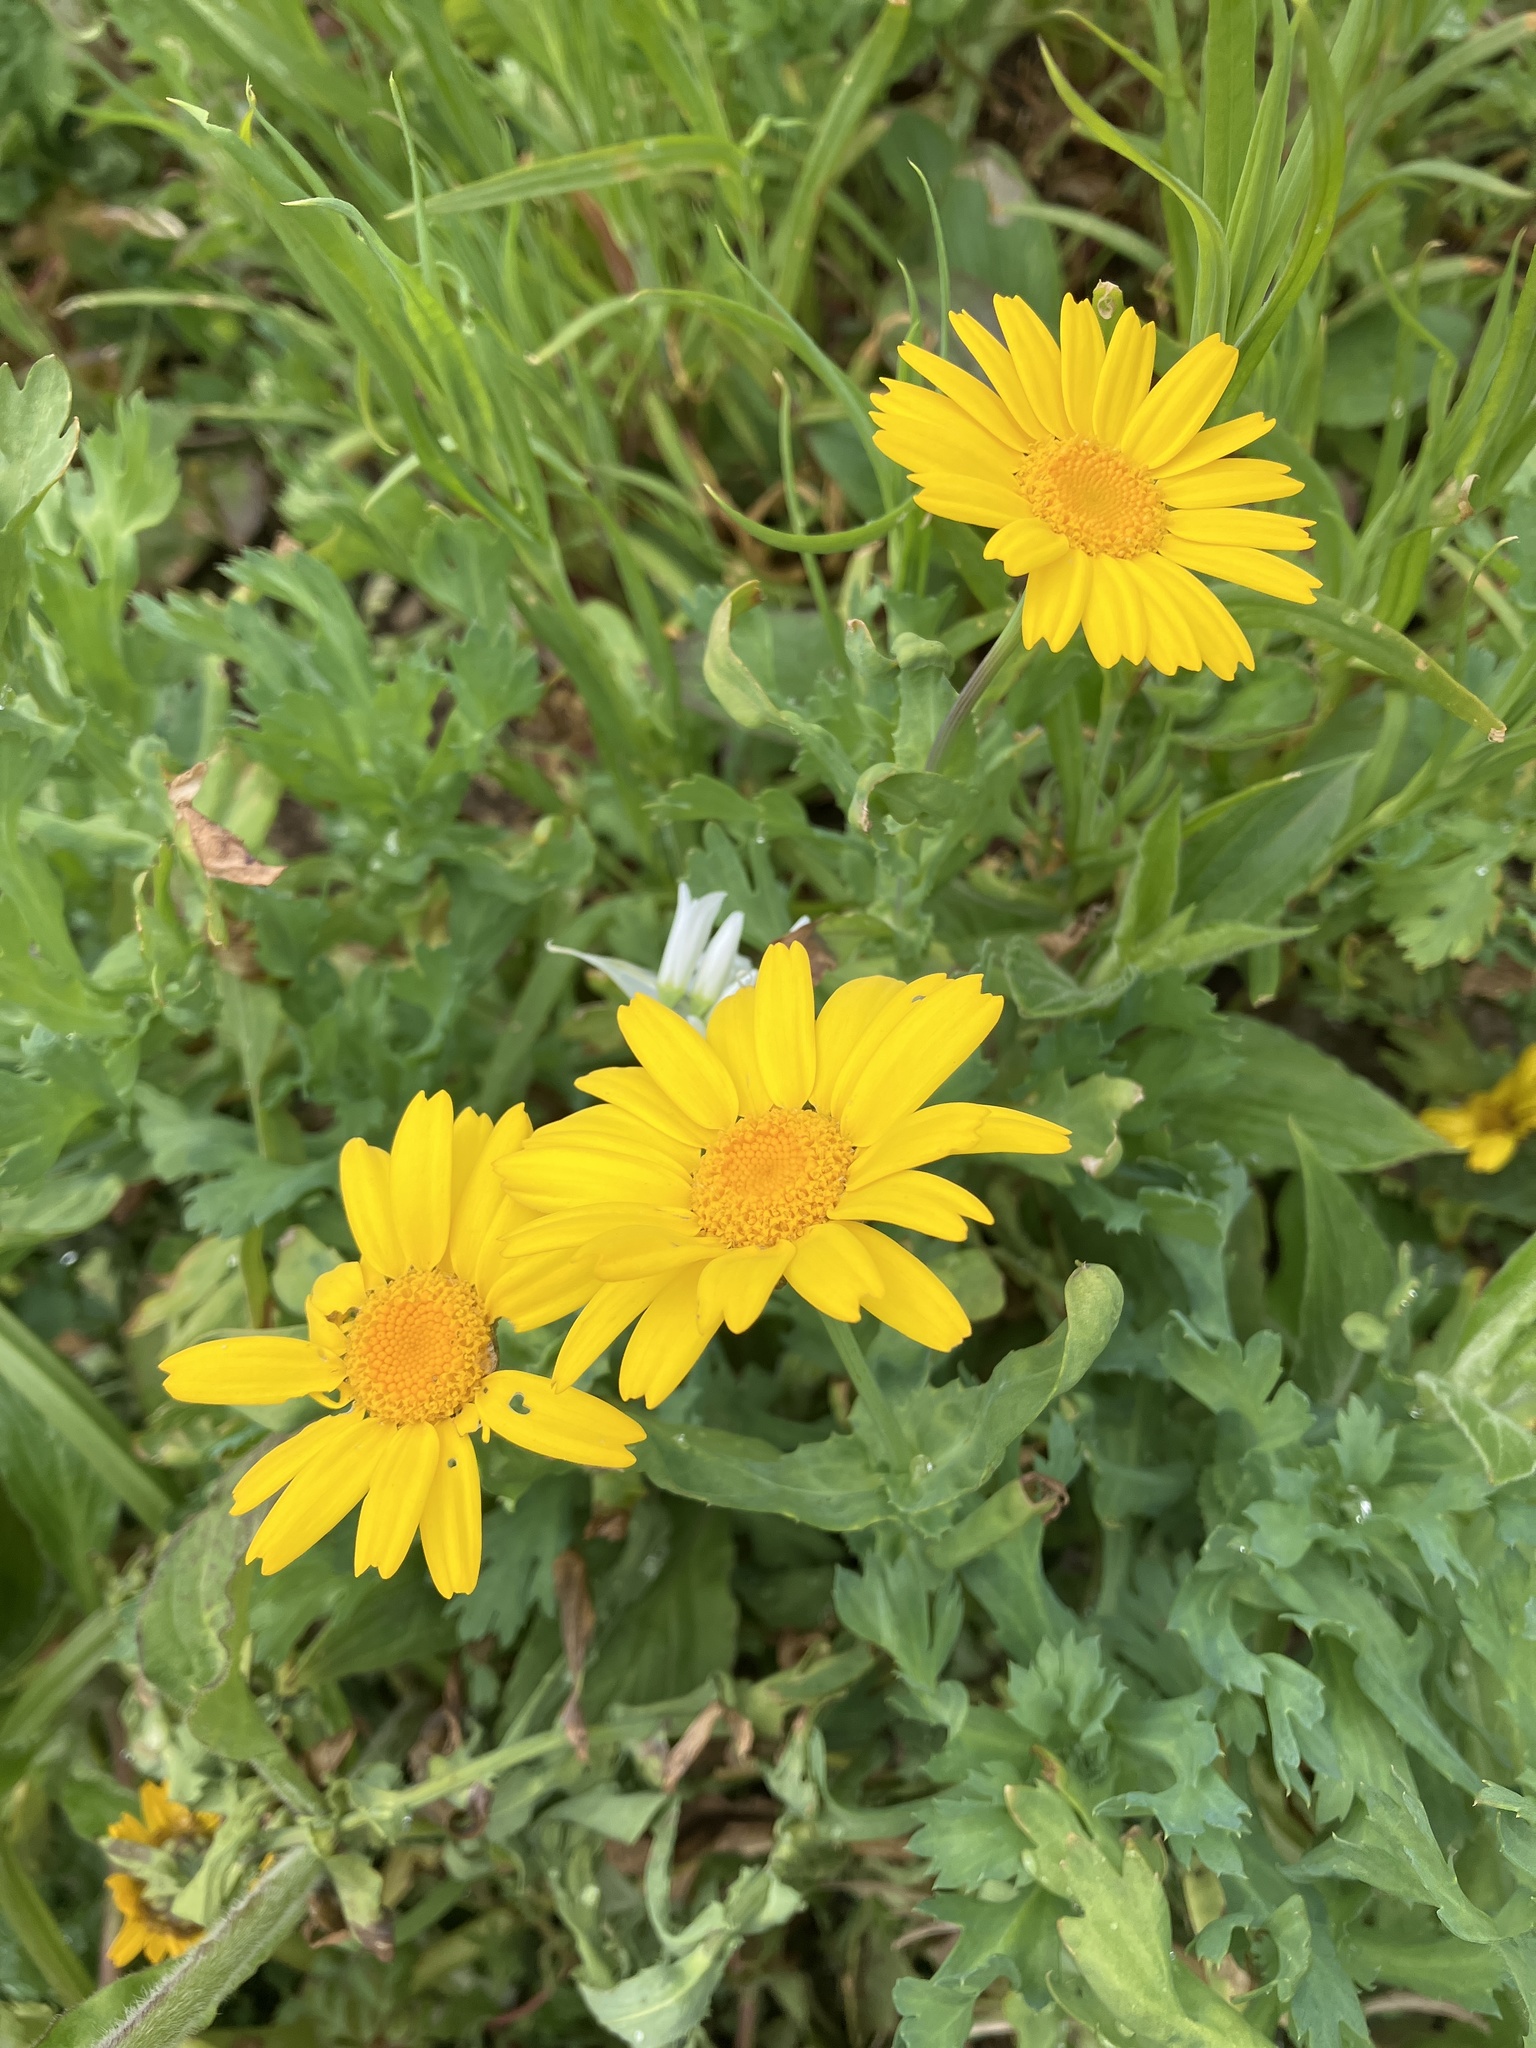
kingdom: Plantae
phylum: Tracheophyta
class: Magnoliopsida
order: Asterales
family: Asteraceae
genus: Glebionis
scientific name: Glebionis segetum
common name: Corndaisy
